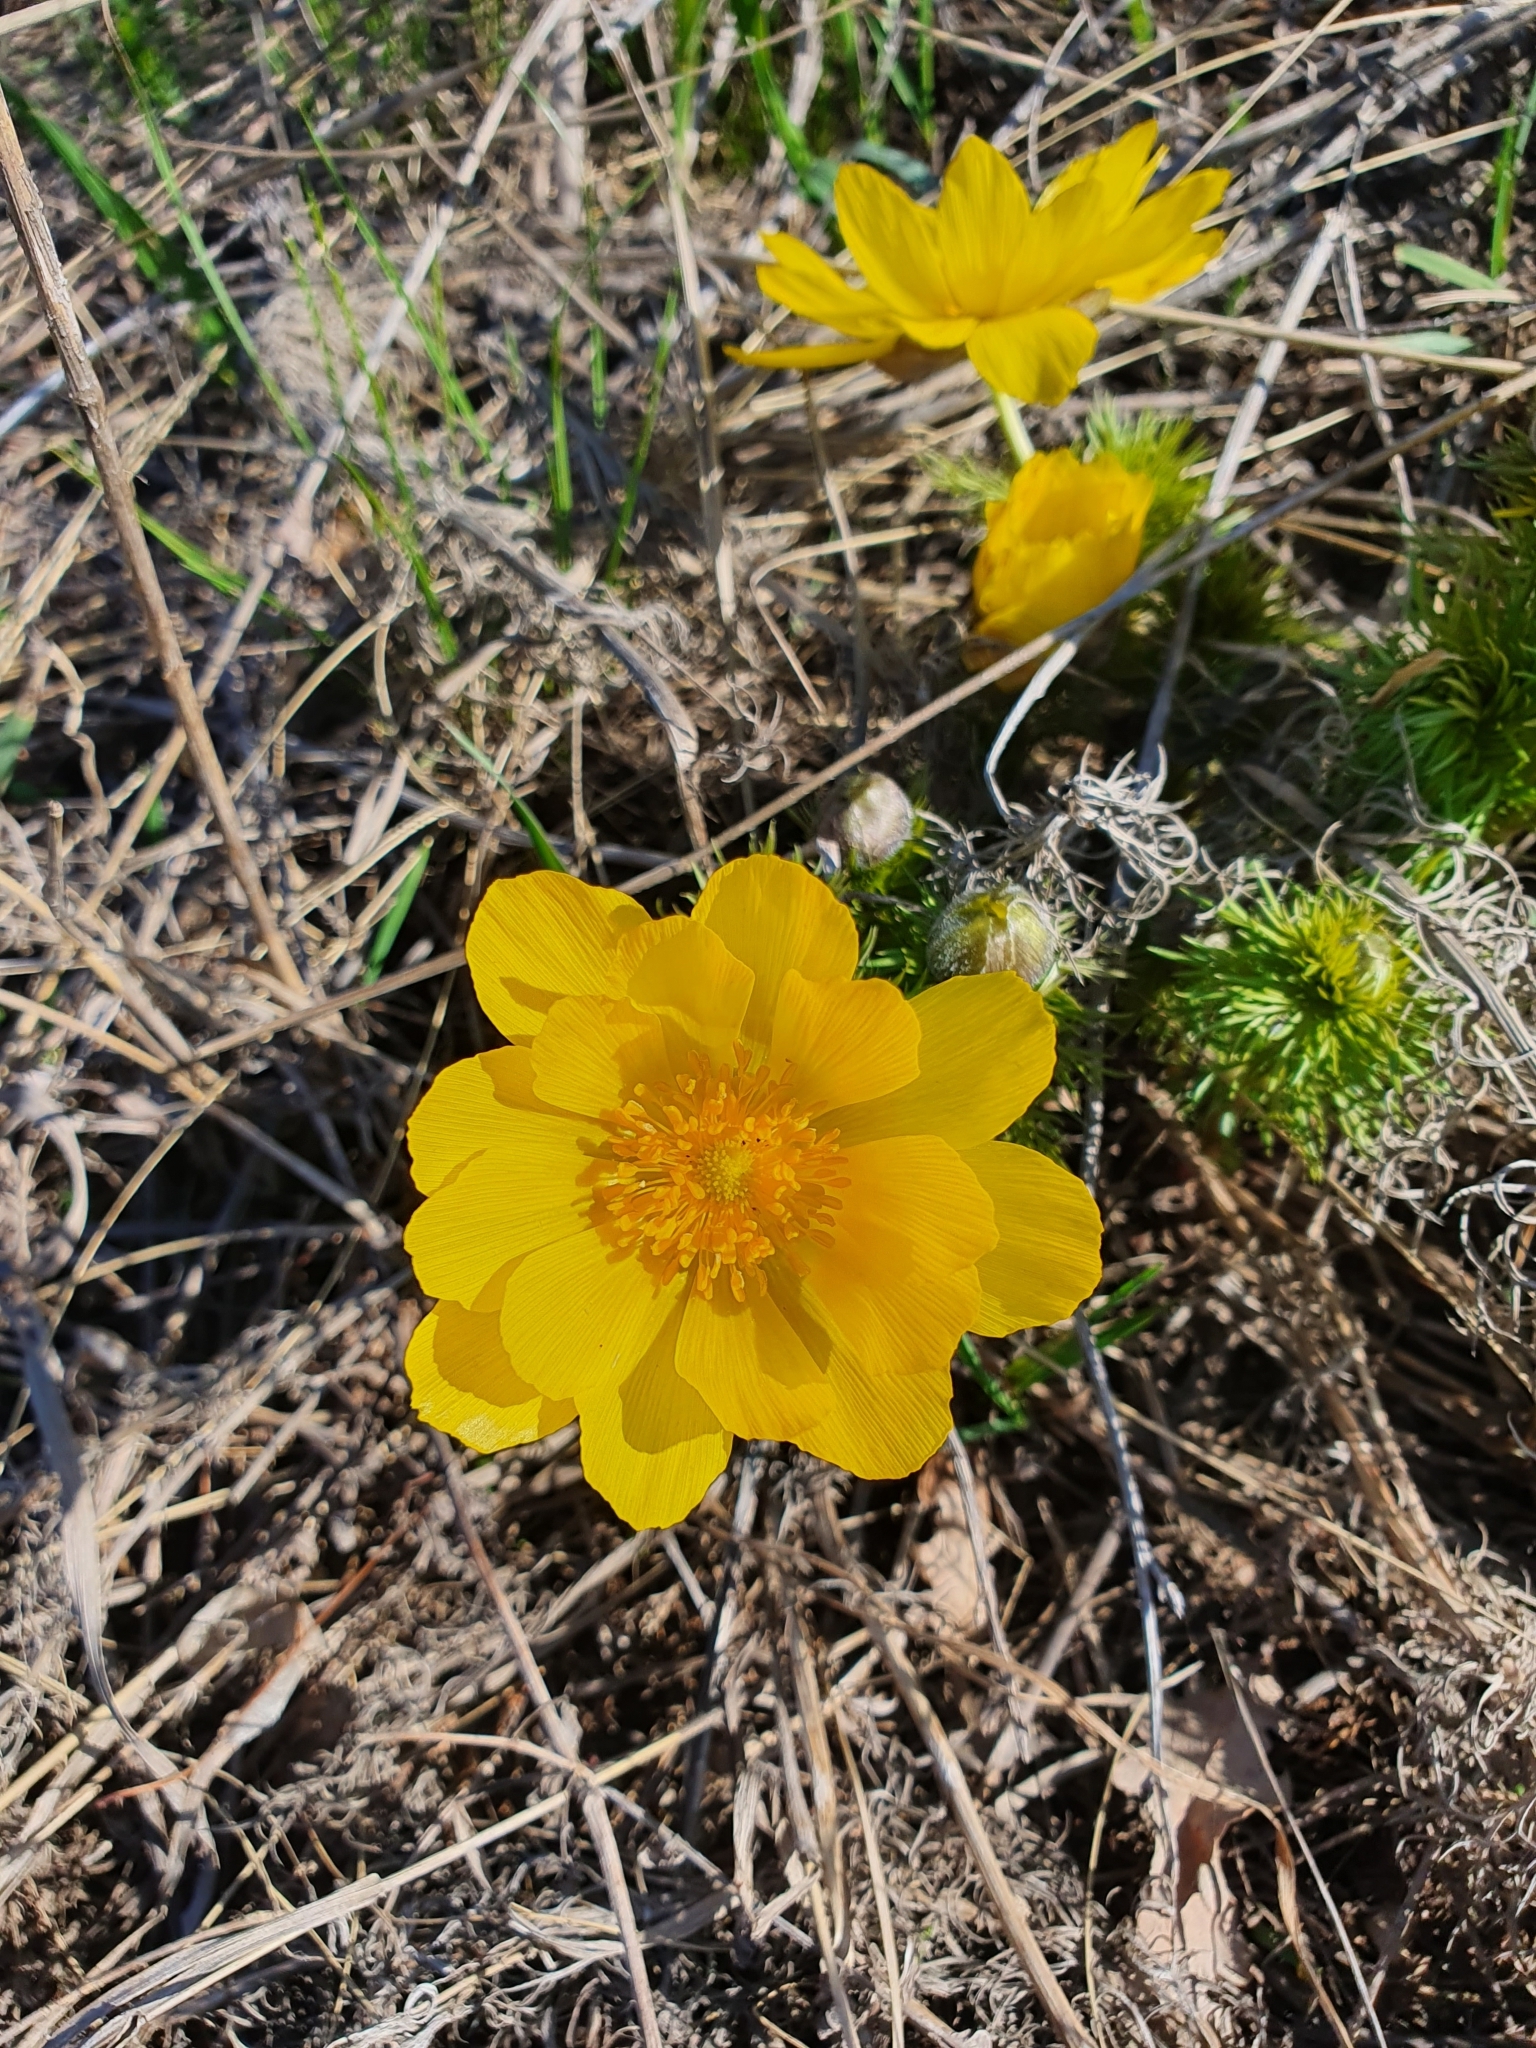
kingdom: Plantae
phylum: Tracheophyta
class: Magnoliopsida
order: Ranunculales
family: Ranunculaceae
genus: Adonis
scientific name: Adonis vernalis
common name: Yellow pheasants-eye
